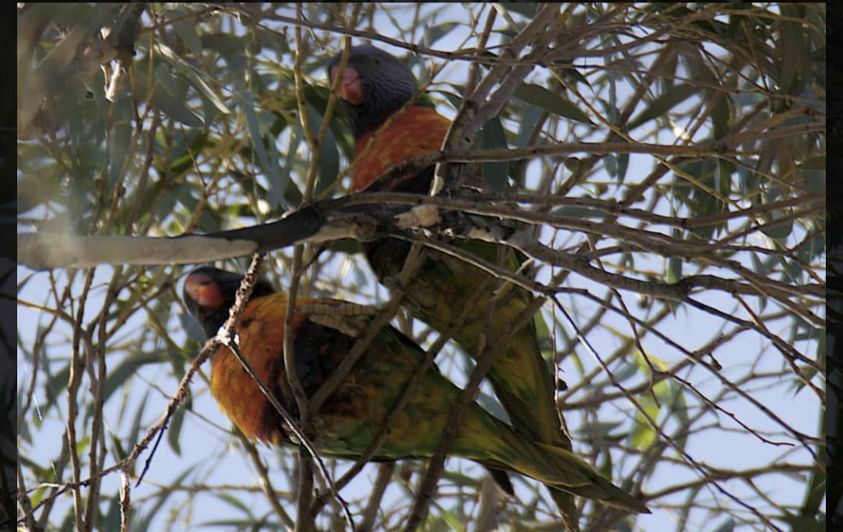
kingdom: Animalia
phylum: Chordata
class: Aves
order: Psittaciformes
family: Psittacidae
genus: Trichoglossus
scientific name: Trichoglossus haematodus
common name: Coconut lorikeet
